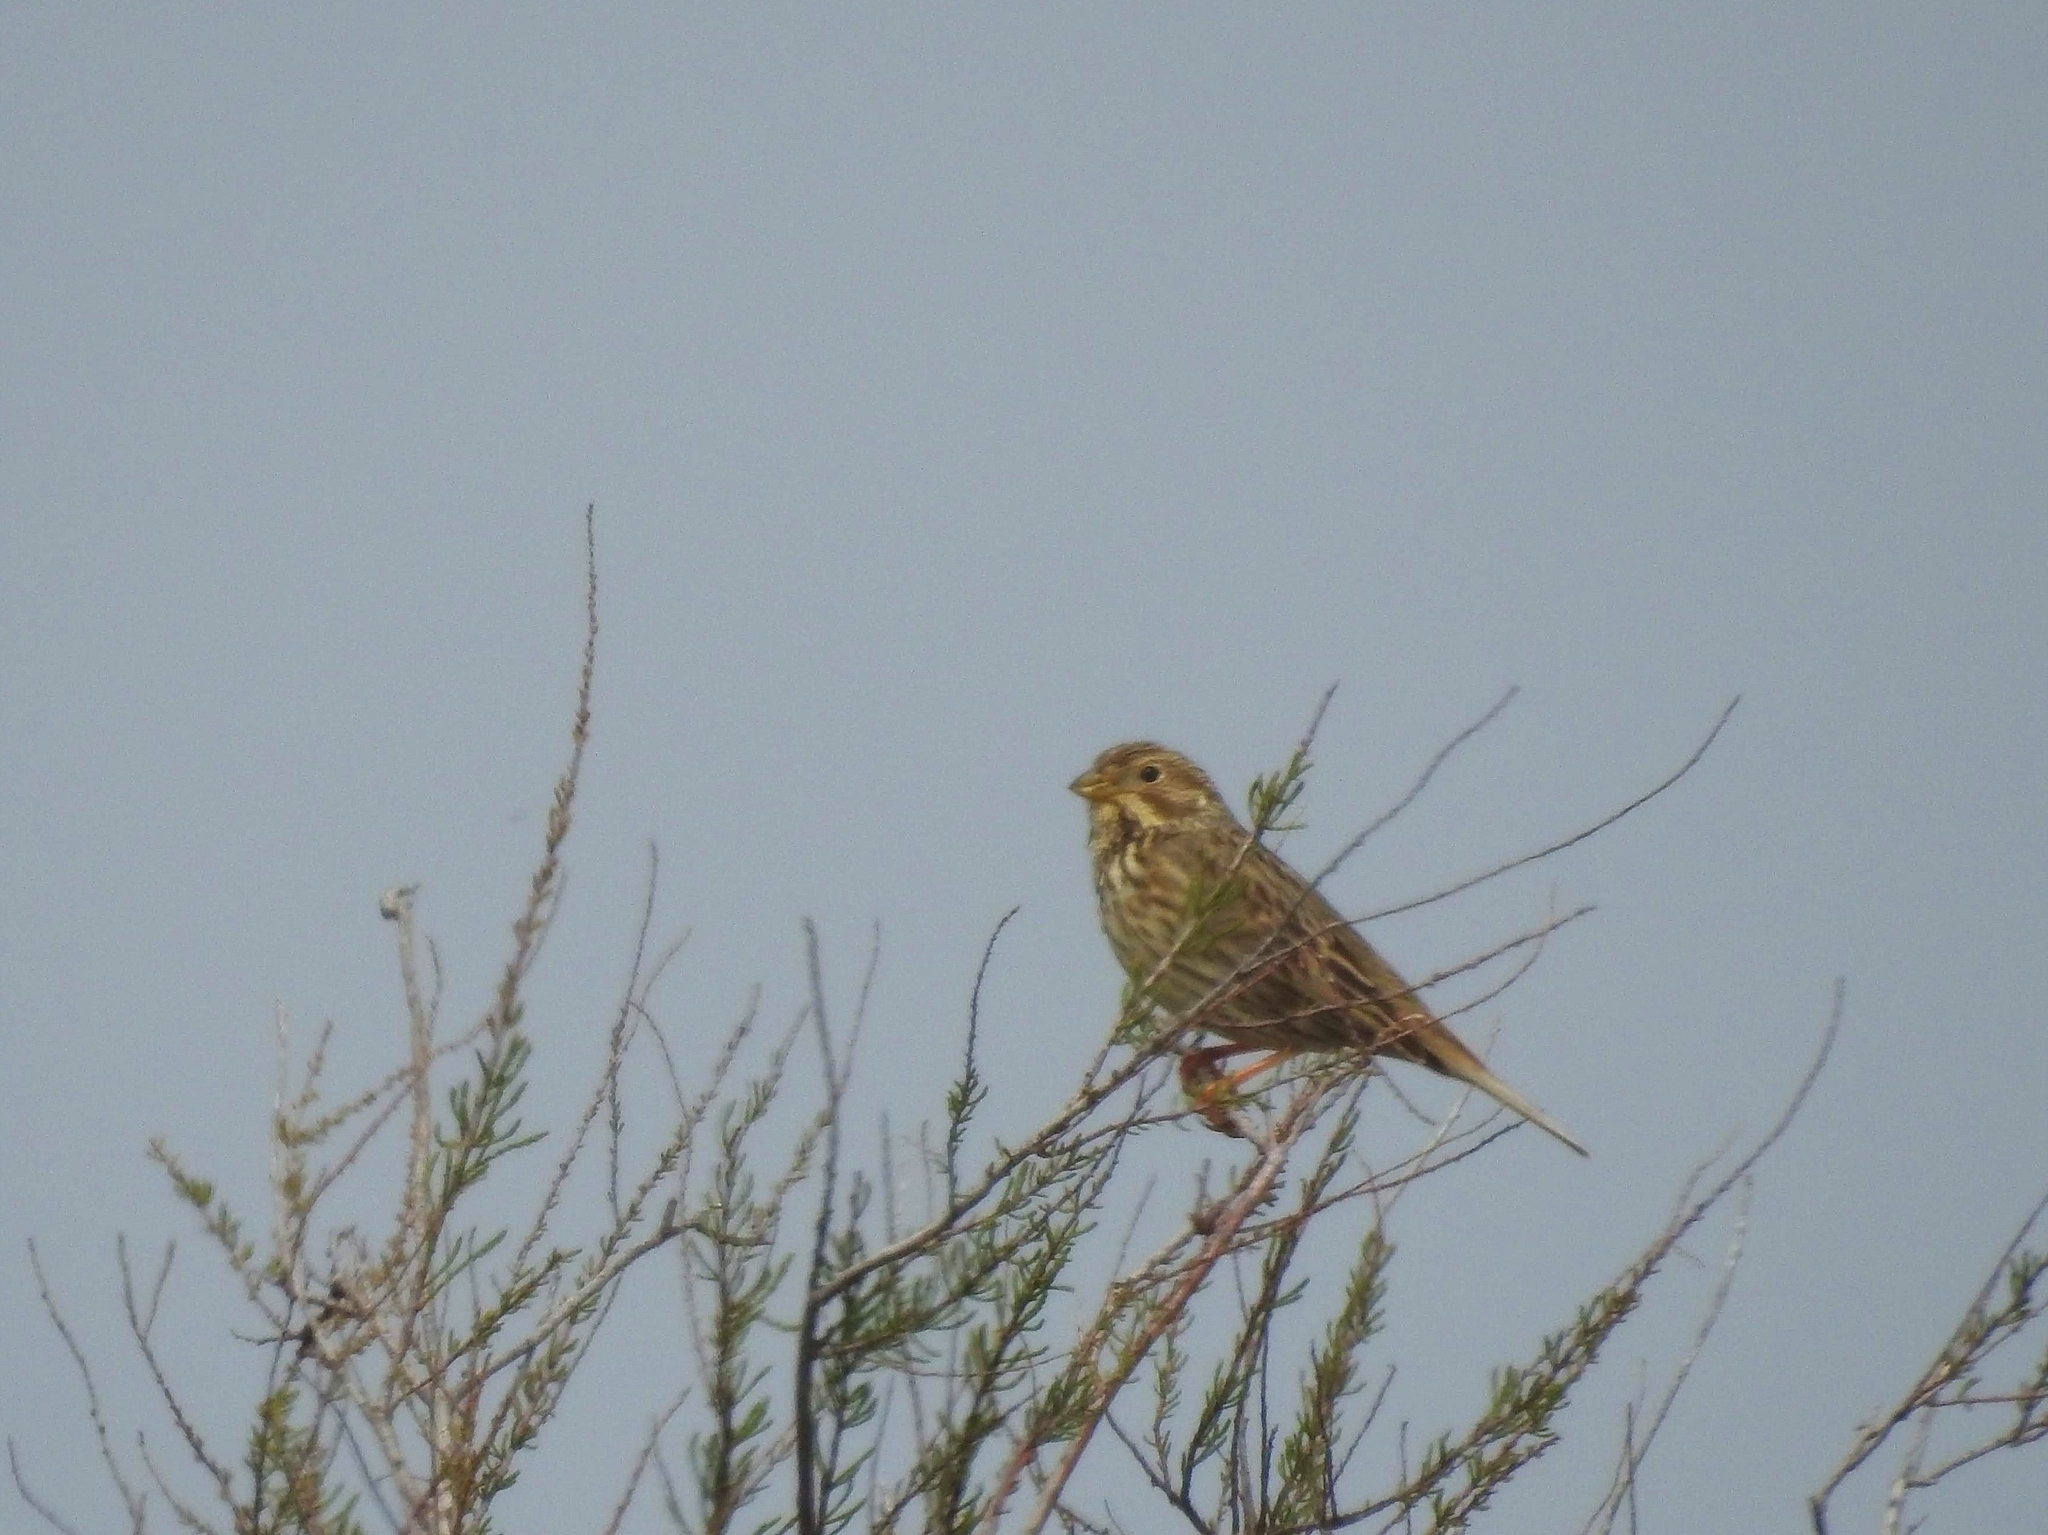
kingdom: Animalia
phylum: Chordata
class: Aves
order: Passeriformes
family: Emberizidae
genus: Emberiza
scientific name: Emberiza calandra
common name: Corn bunting
